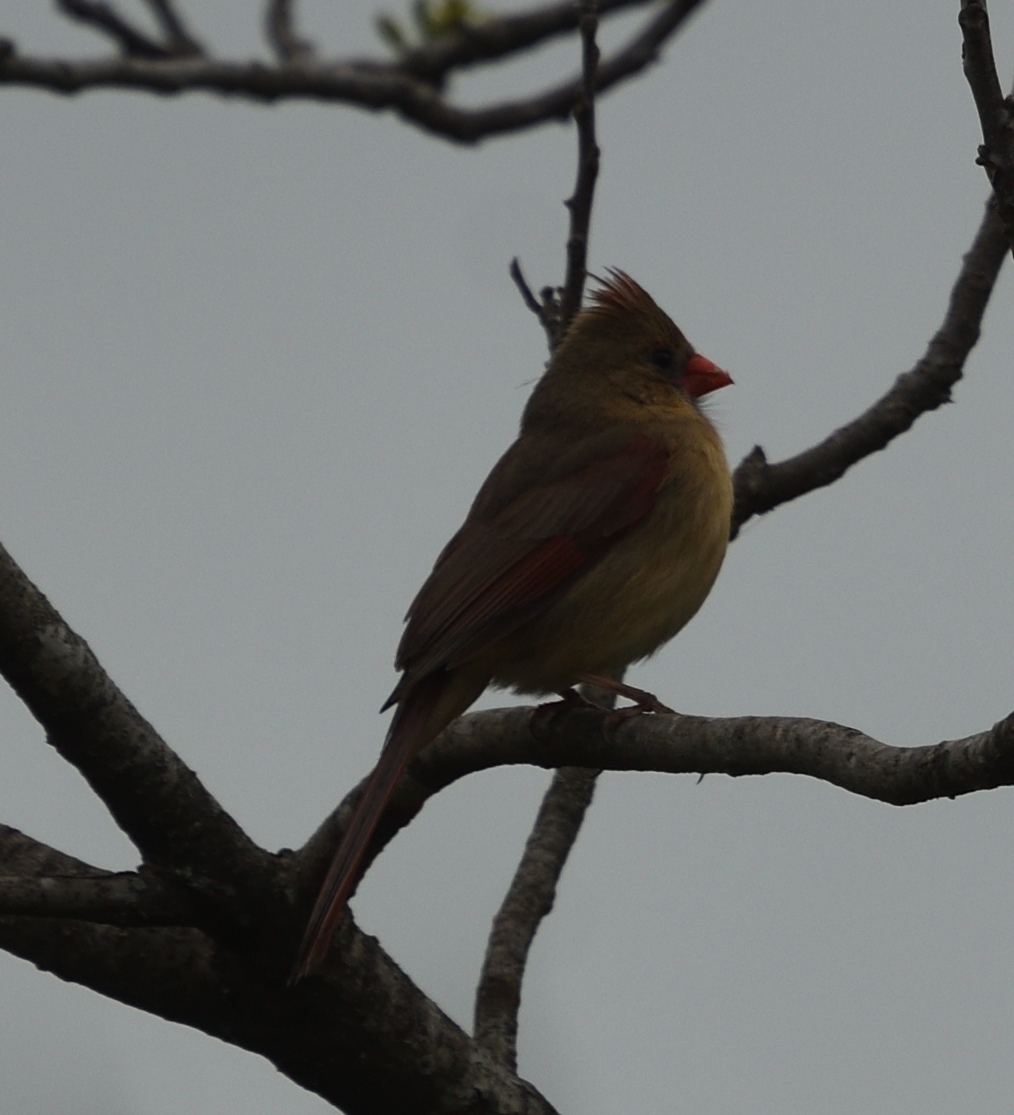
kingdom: Animalia
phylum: Chordata
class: Aves
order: Passeriformes
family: Cardinalidae
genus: Cardinalis
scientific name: Cardinalis cardinalis
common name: Northern cardinal
